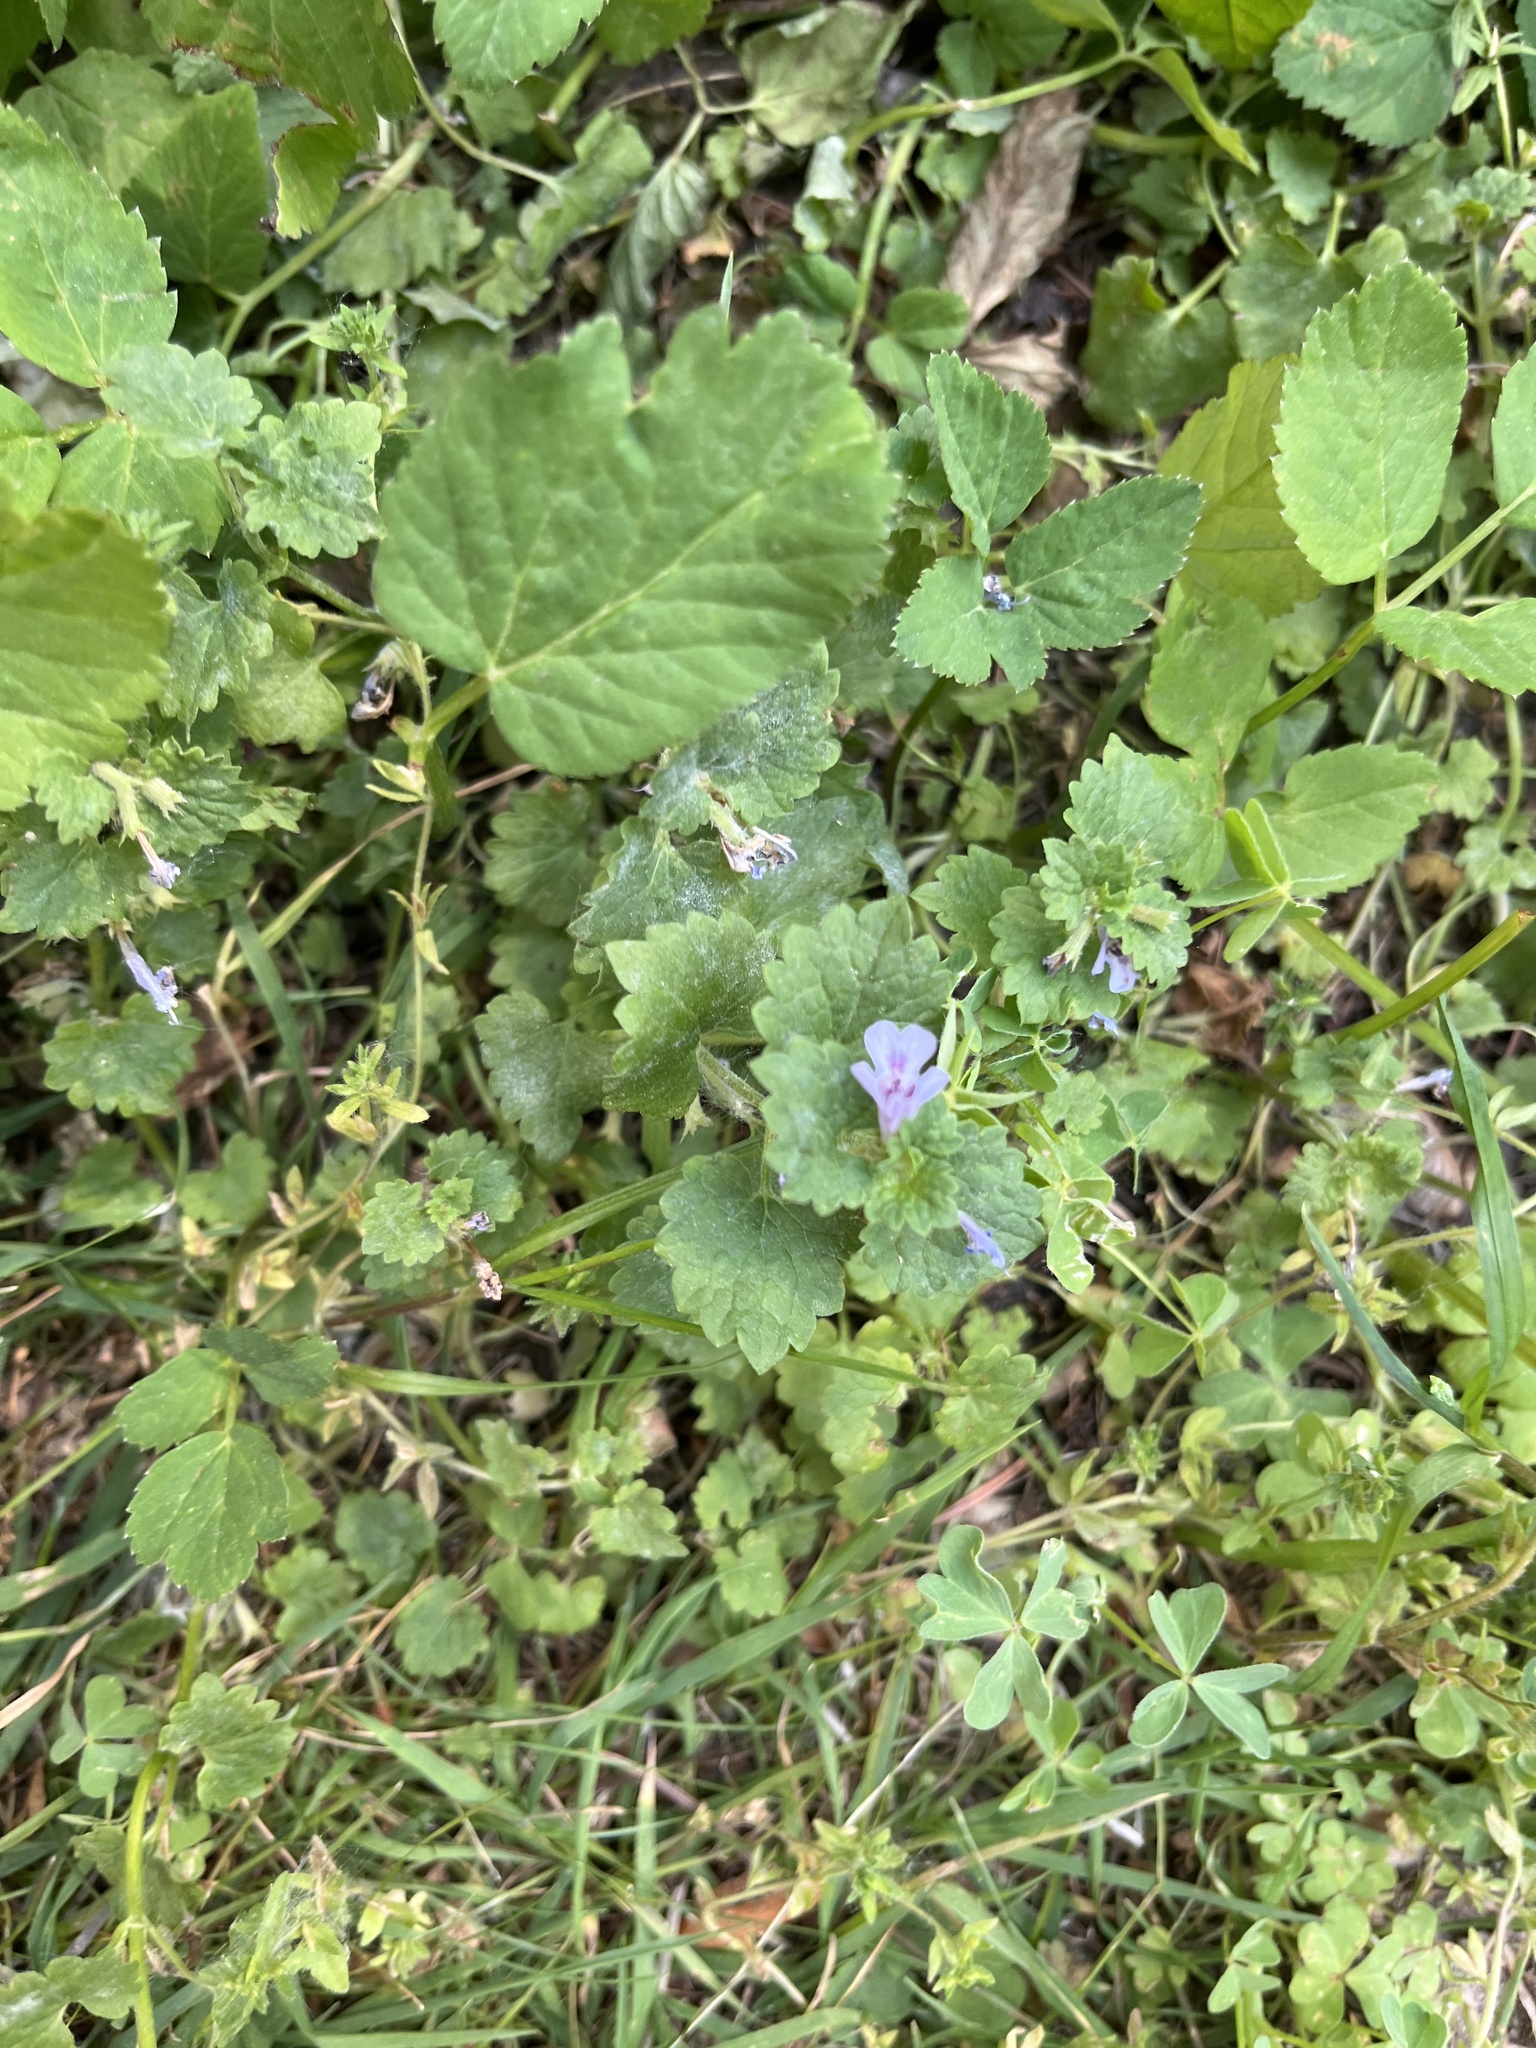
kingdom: Plantae
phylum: Tracheophyta
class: Magnoliopsida
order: Lamiales
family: Lamiaceae
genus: Glechoma
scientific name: Glechoma hederacea
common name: Ground ivy
